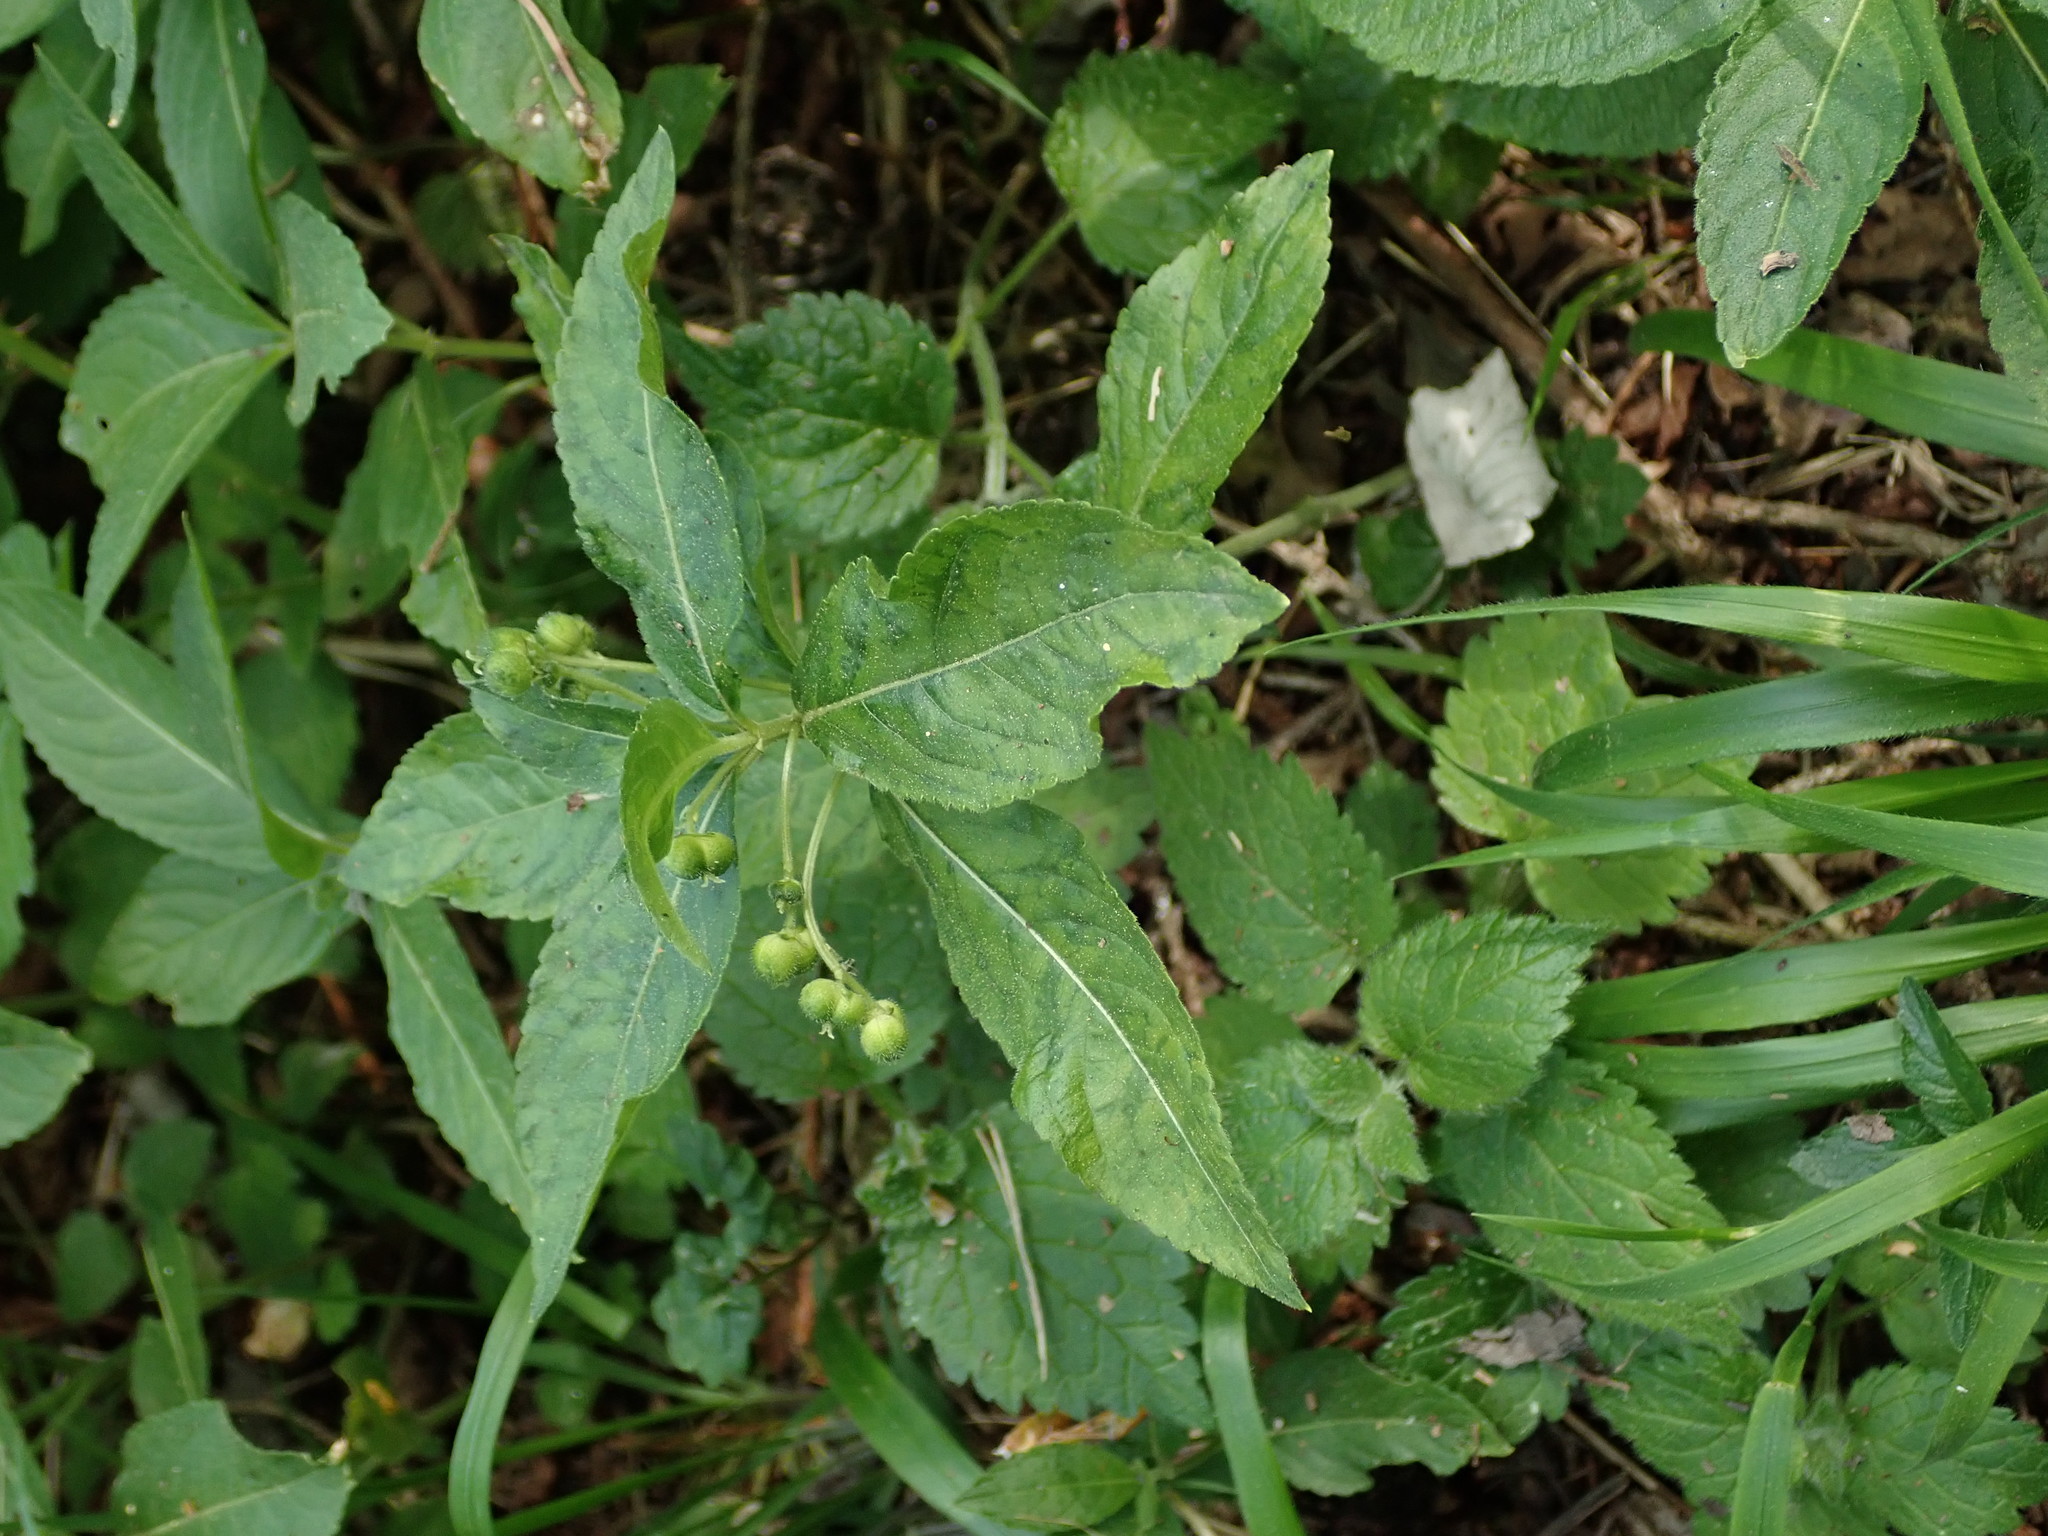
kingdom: Plantae
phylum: Tracheophyta
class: Magnoliopsida
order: Malpighiales
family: Euphorbiaceae
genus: Mercurialis
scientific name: Mercurialis perennis
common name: Dog mercury
